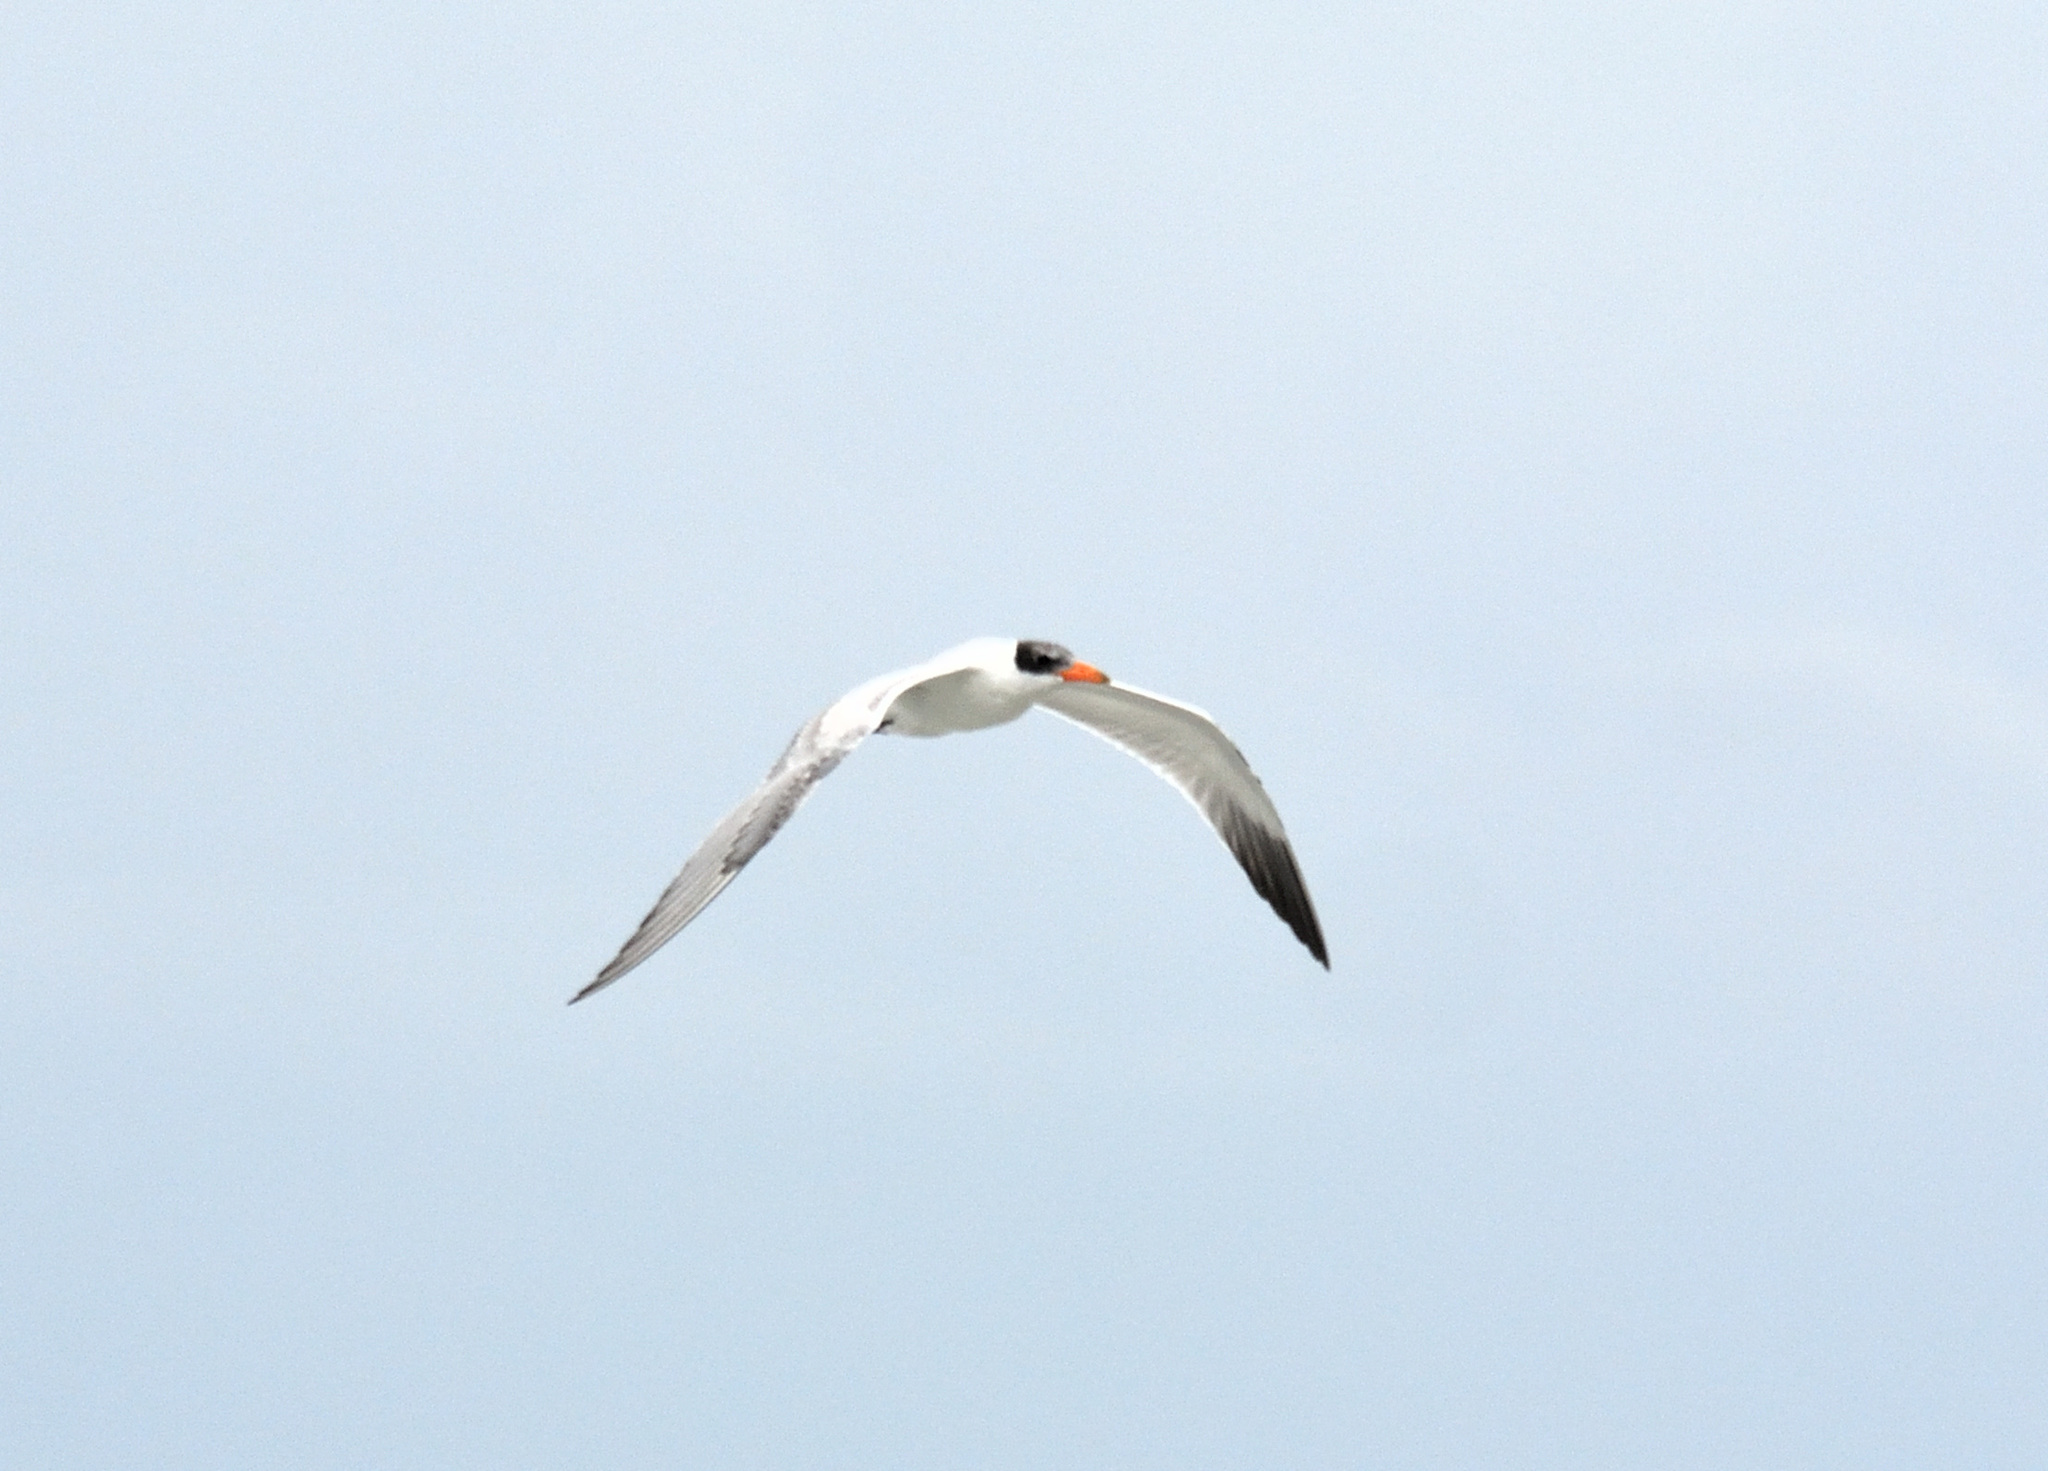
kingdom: Animalia
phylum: Chordata
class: Aves
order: Charadriiformes
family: Laridae
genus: Hydroprogne
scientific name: Hydroprogne caspia
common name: Caspian tern
